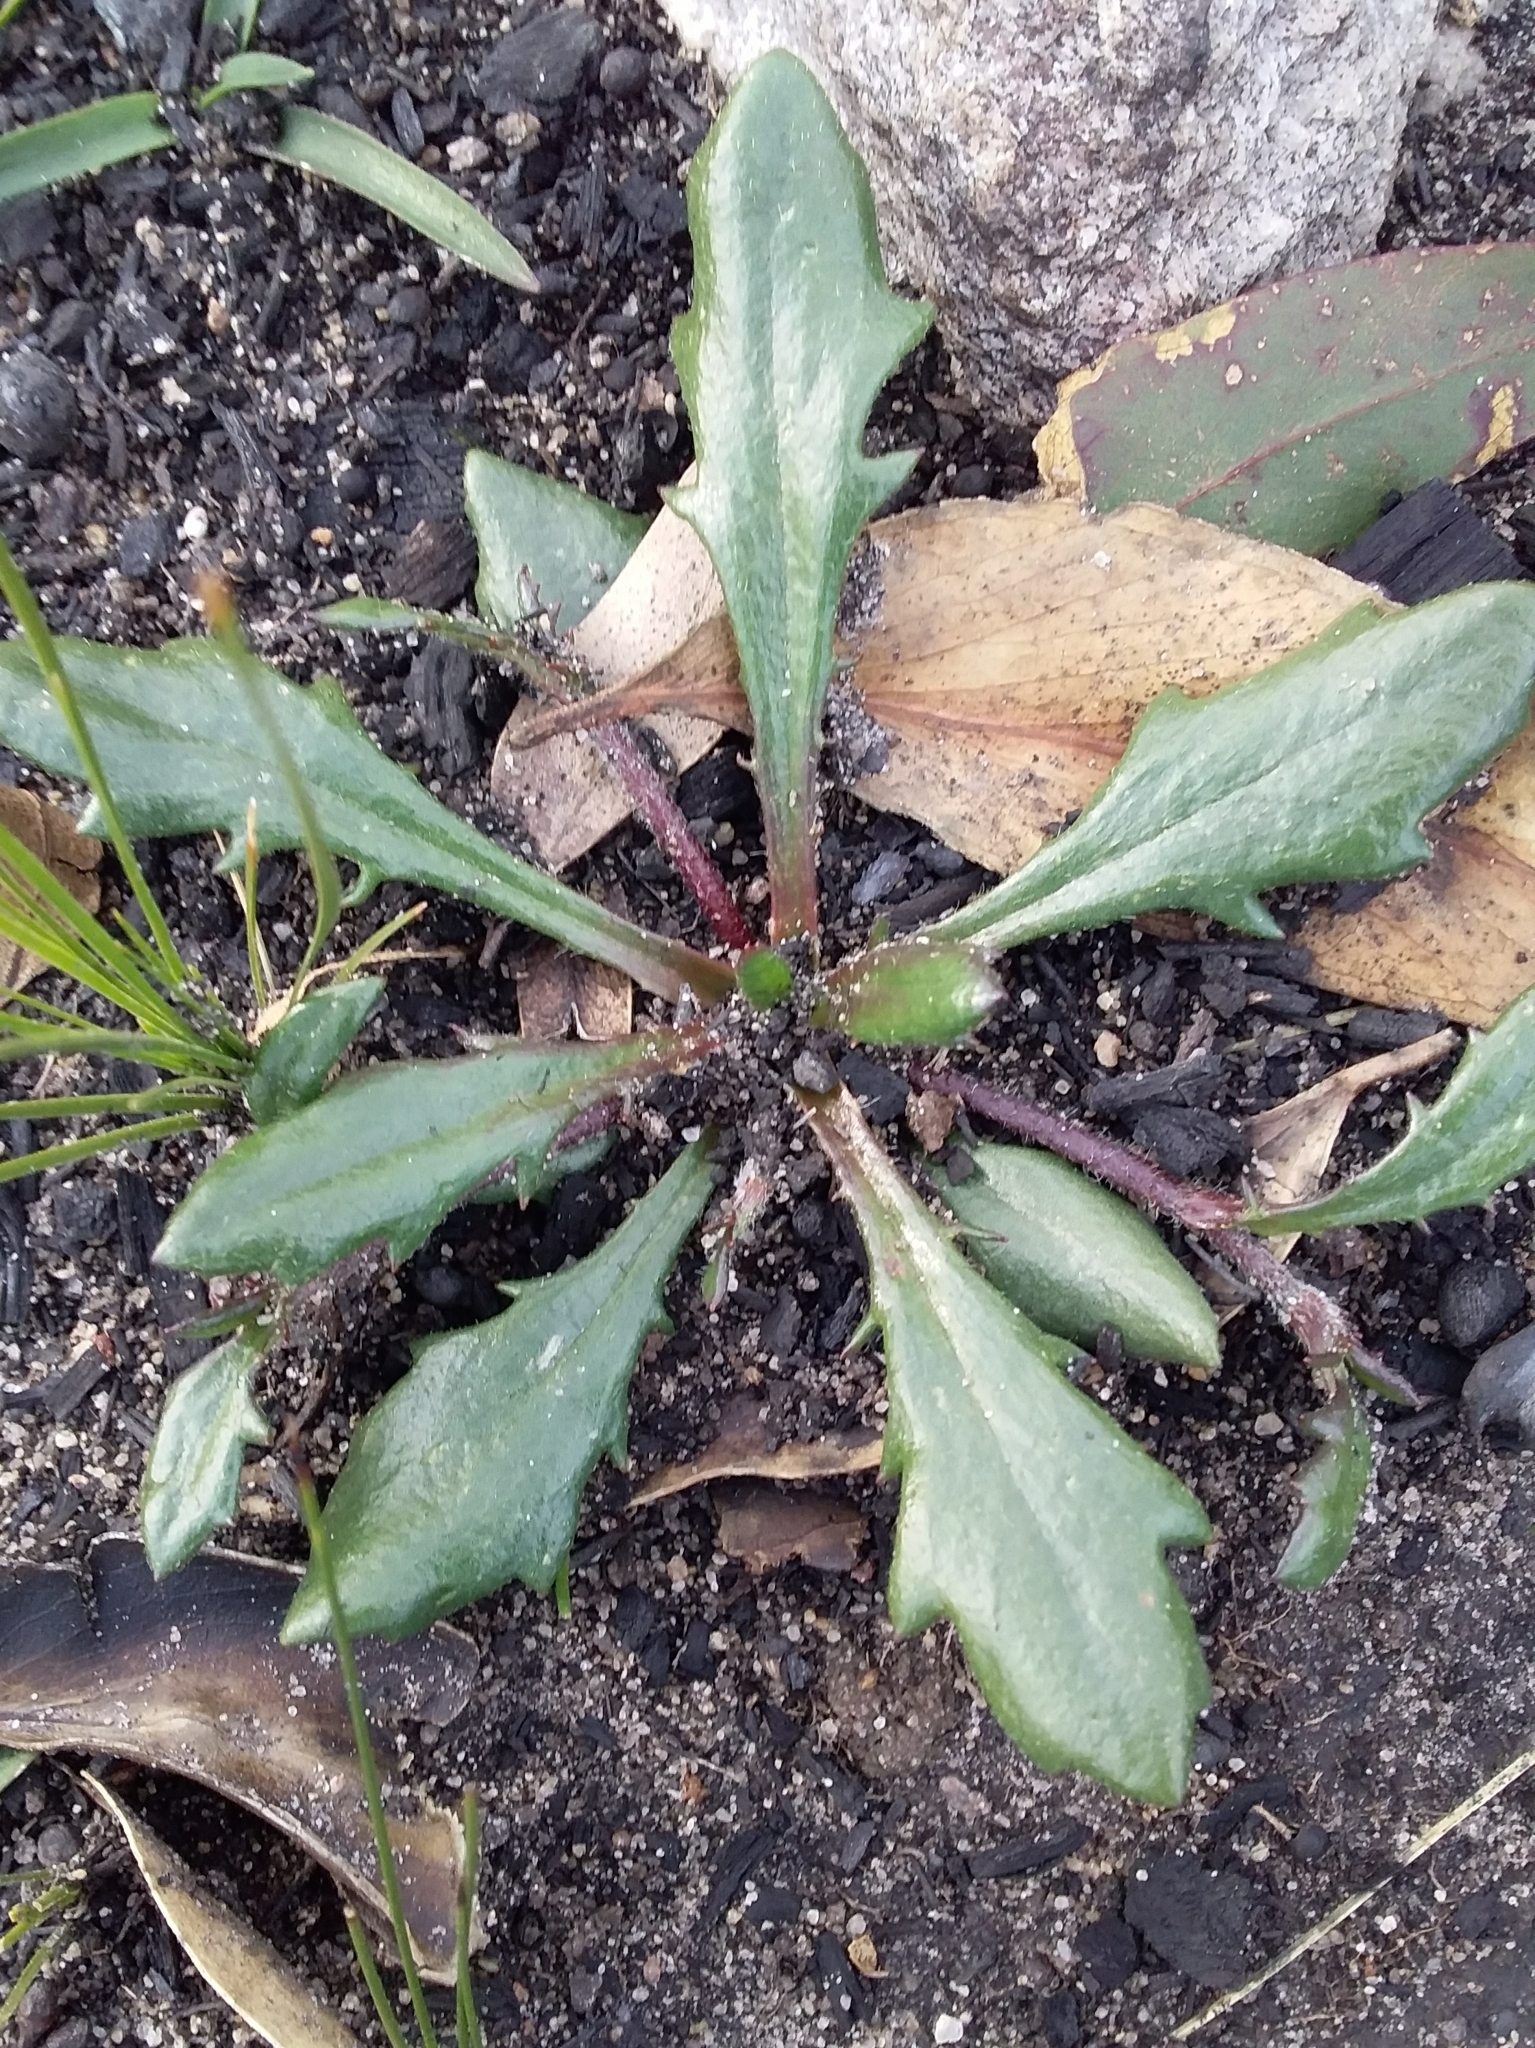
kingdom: Plantae
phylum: Tracheophyta
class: Magnoliopsida
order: Asterales
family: Goodeniaceae
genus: Goodenia
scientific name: Goodenia blackiana
